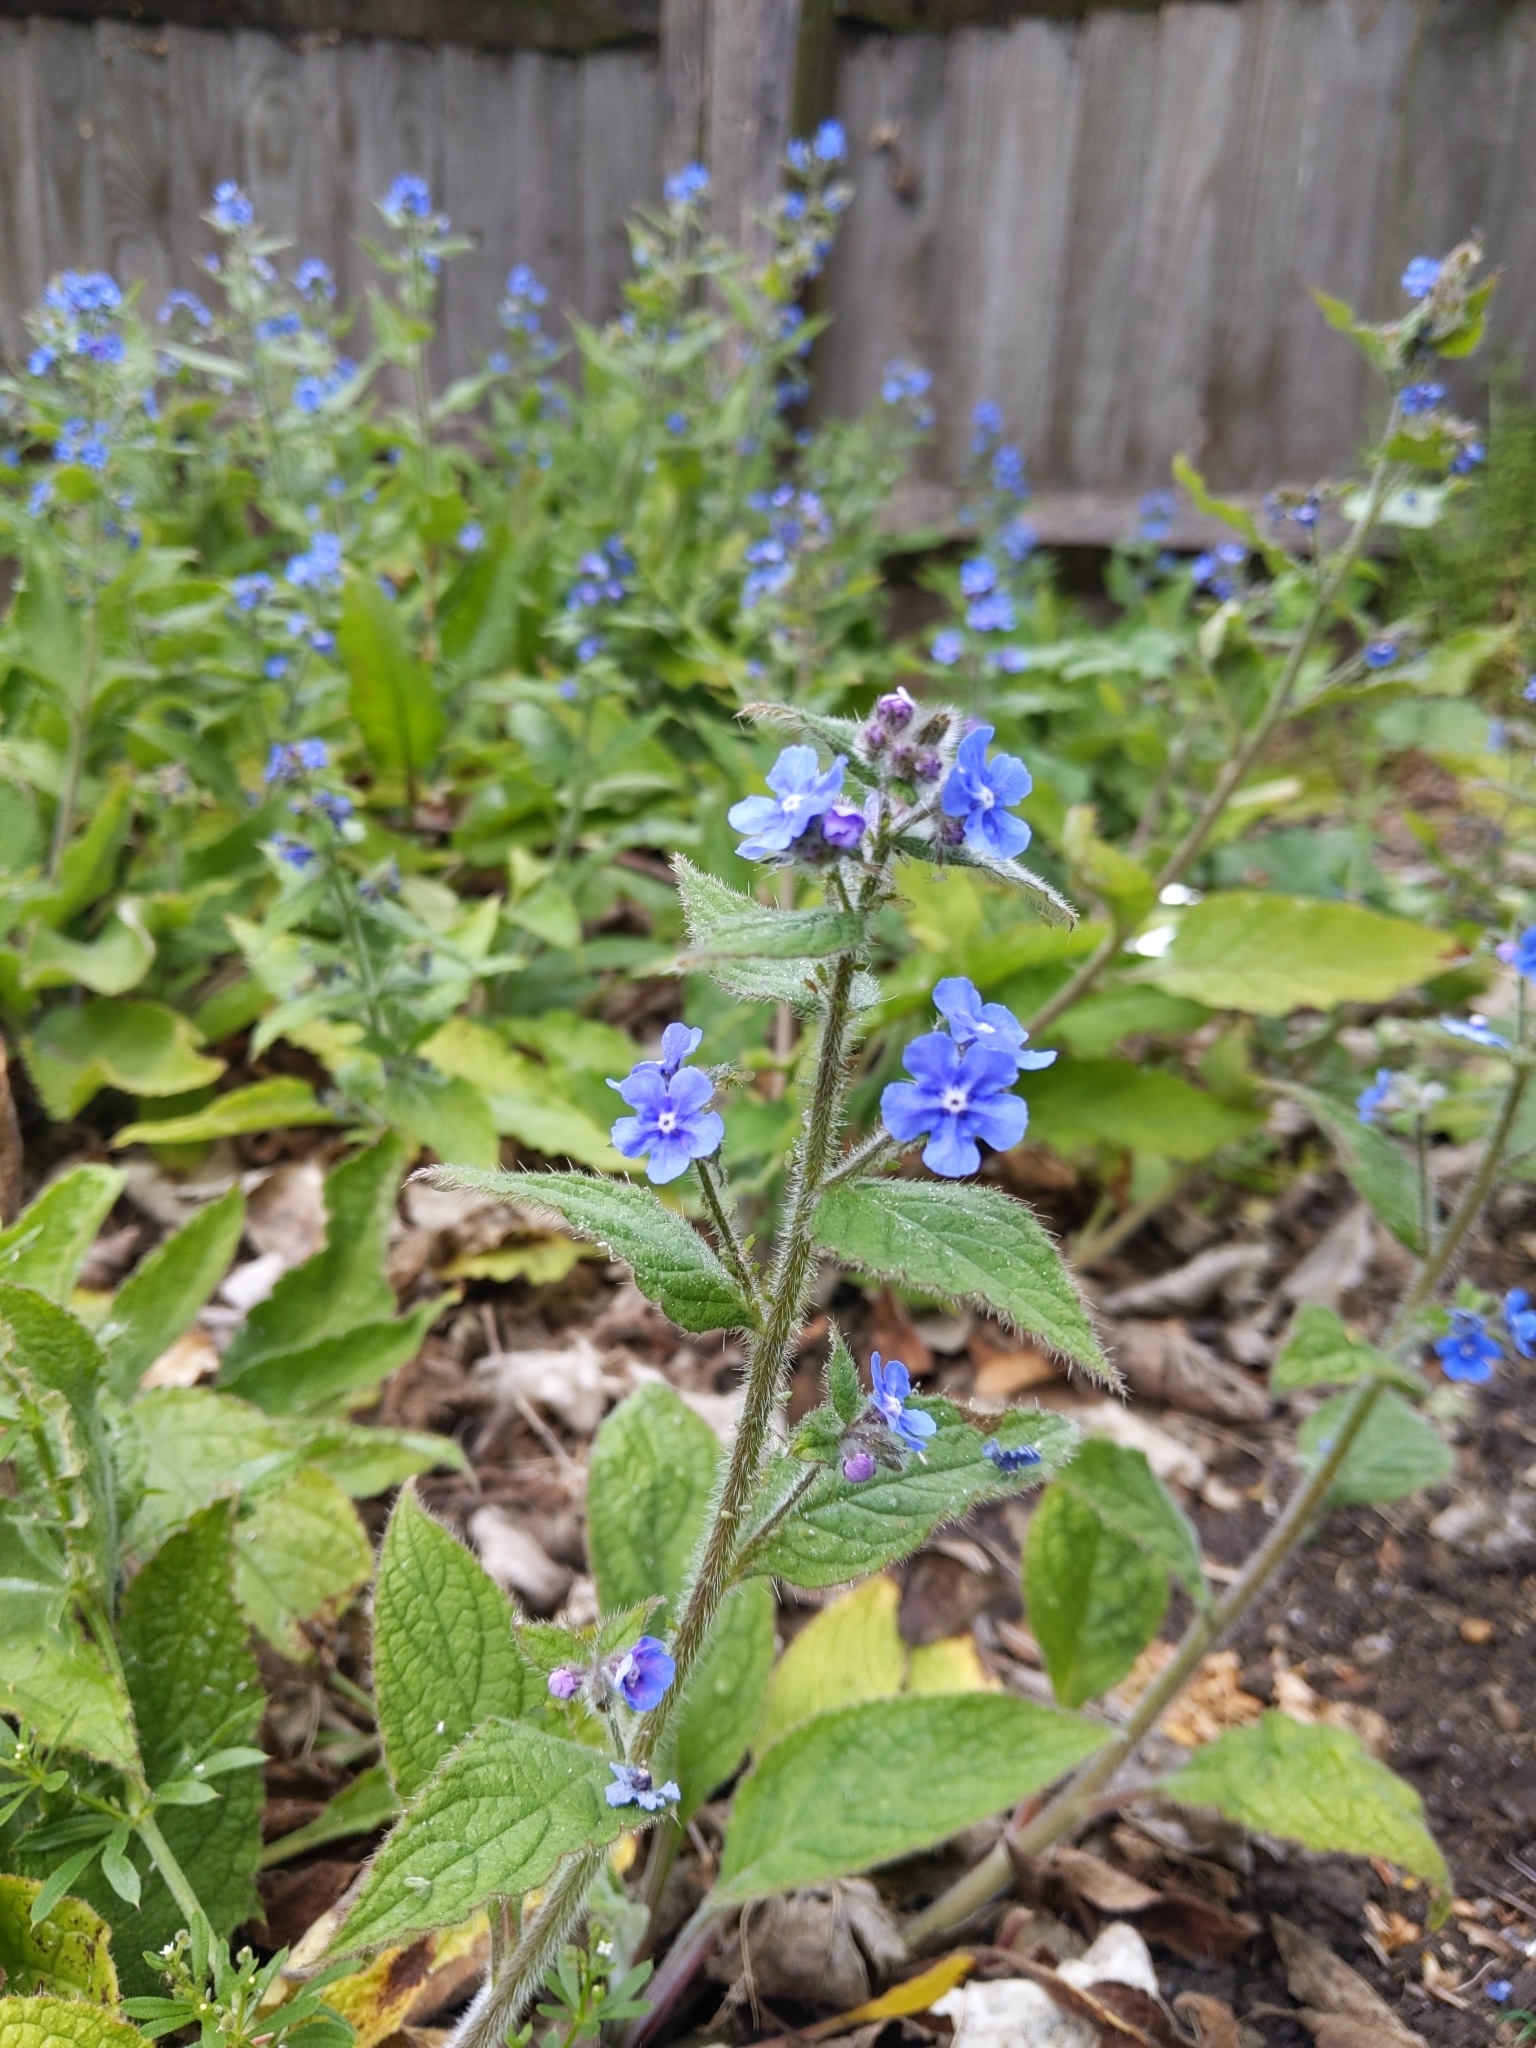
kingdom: Plantae
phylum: Tracheophyta
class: Magnoliopsida
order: Boraginales
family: Boraginaceae
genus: Pentaglottis
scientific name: Pentaglottis sempervirens
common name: Green alkanet
